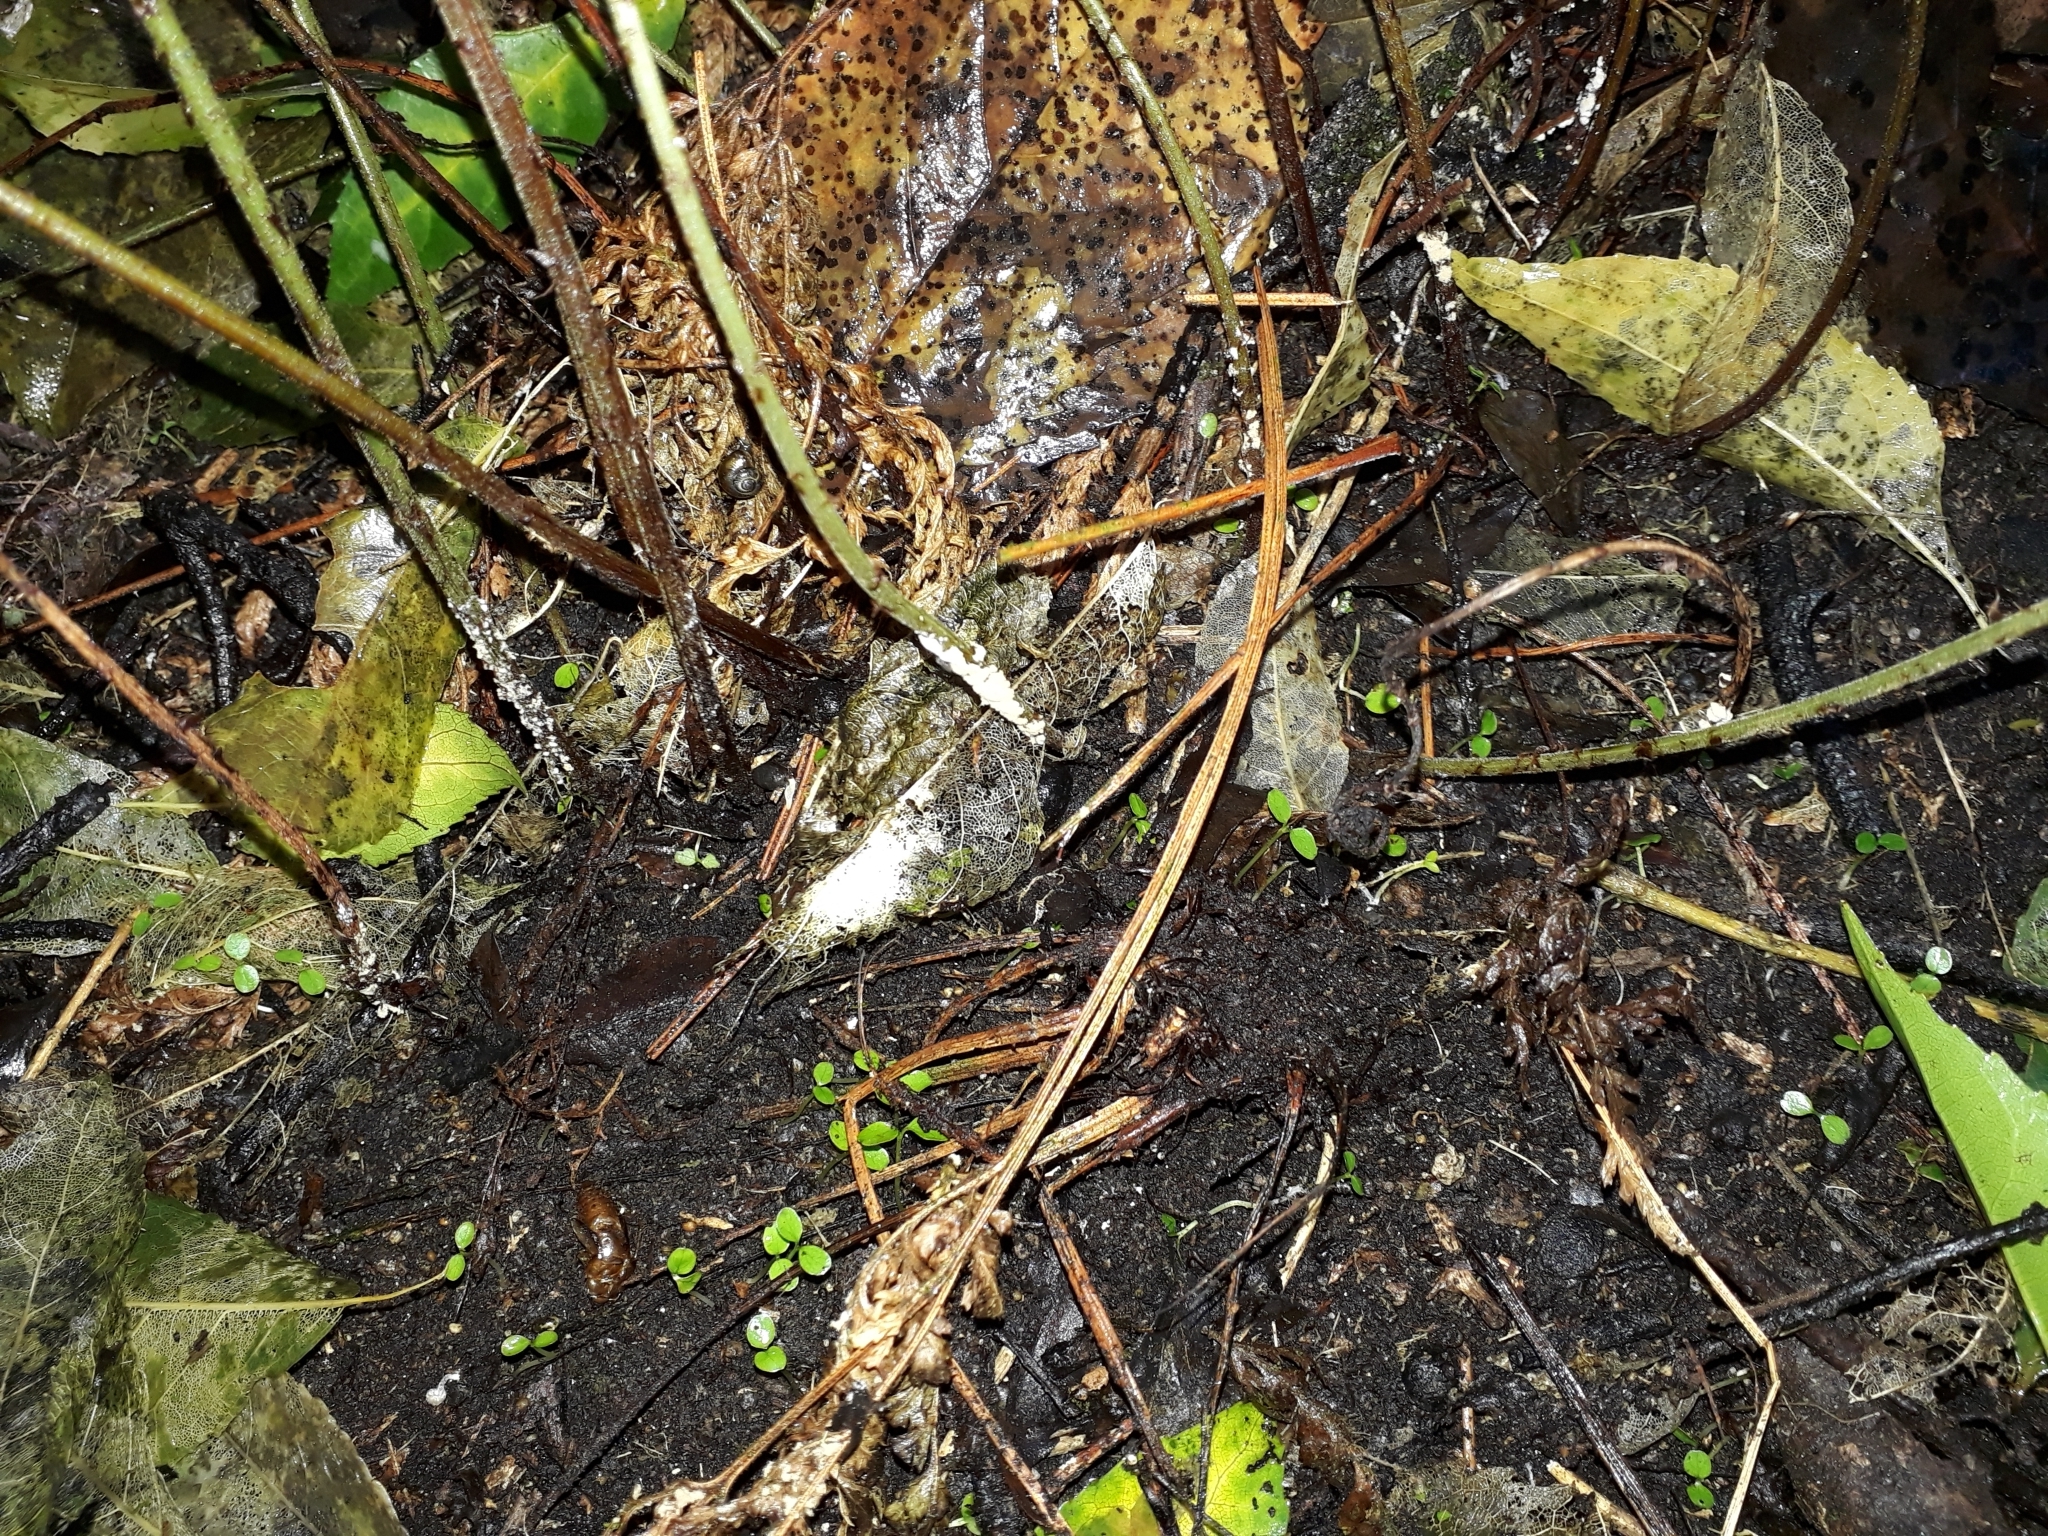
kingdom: Plantae
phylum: Tracheophyta
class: Polypodiopsida
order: Polypodiales
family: Dryopteridaceae
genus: Parapolystichum
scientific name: Parapolystichum microsorum
